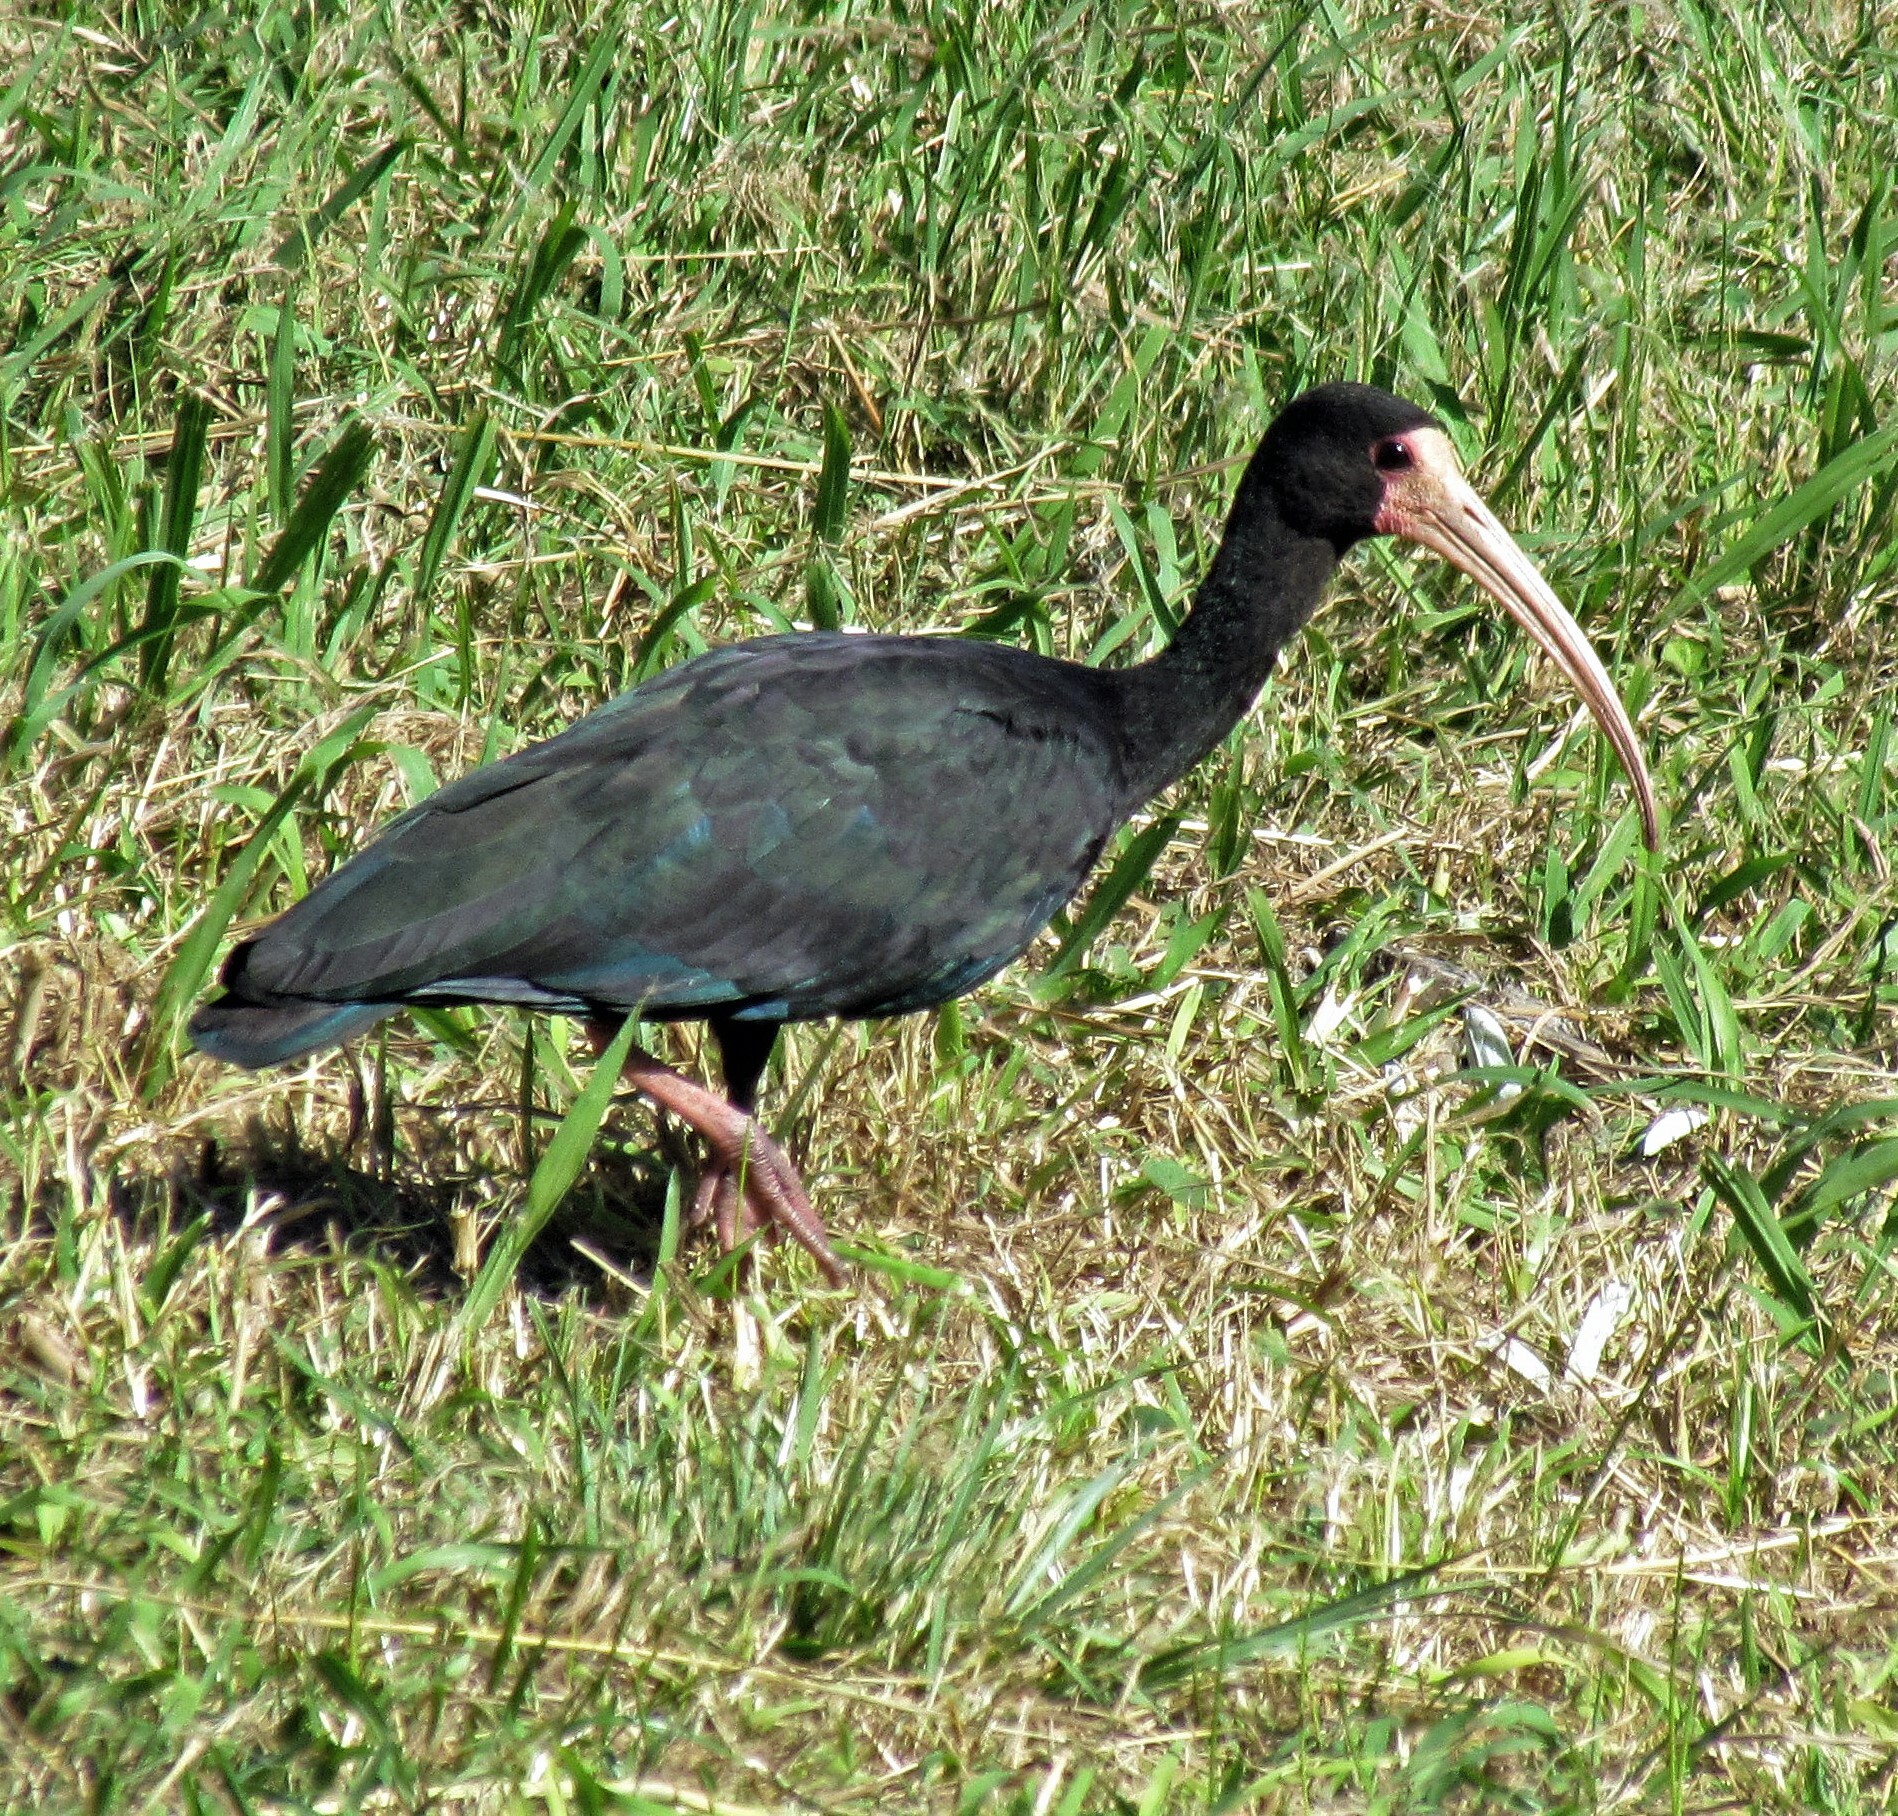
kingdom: Animalia
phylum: Chordata
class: Aves
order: Pelecaniformes
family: Threskiornithidae
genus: Phimosus
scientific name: Phimosus infuscatus
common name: Bare-faced ibis
